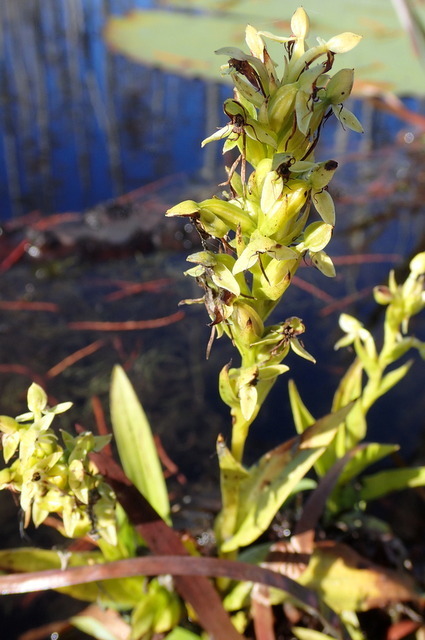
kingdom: Plantae
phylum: Tracheophyta
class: Liliopsida
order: Asparagales
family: Orchidaceae
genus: Habenaria
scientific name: Habenaria repens
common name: Water orchid
